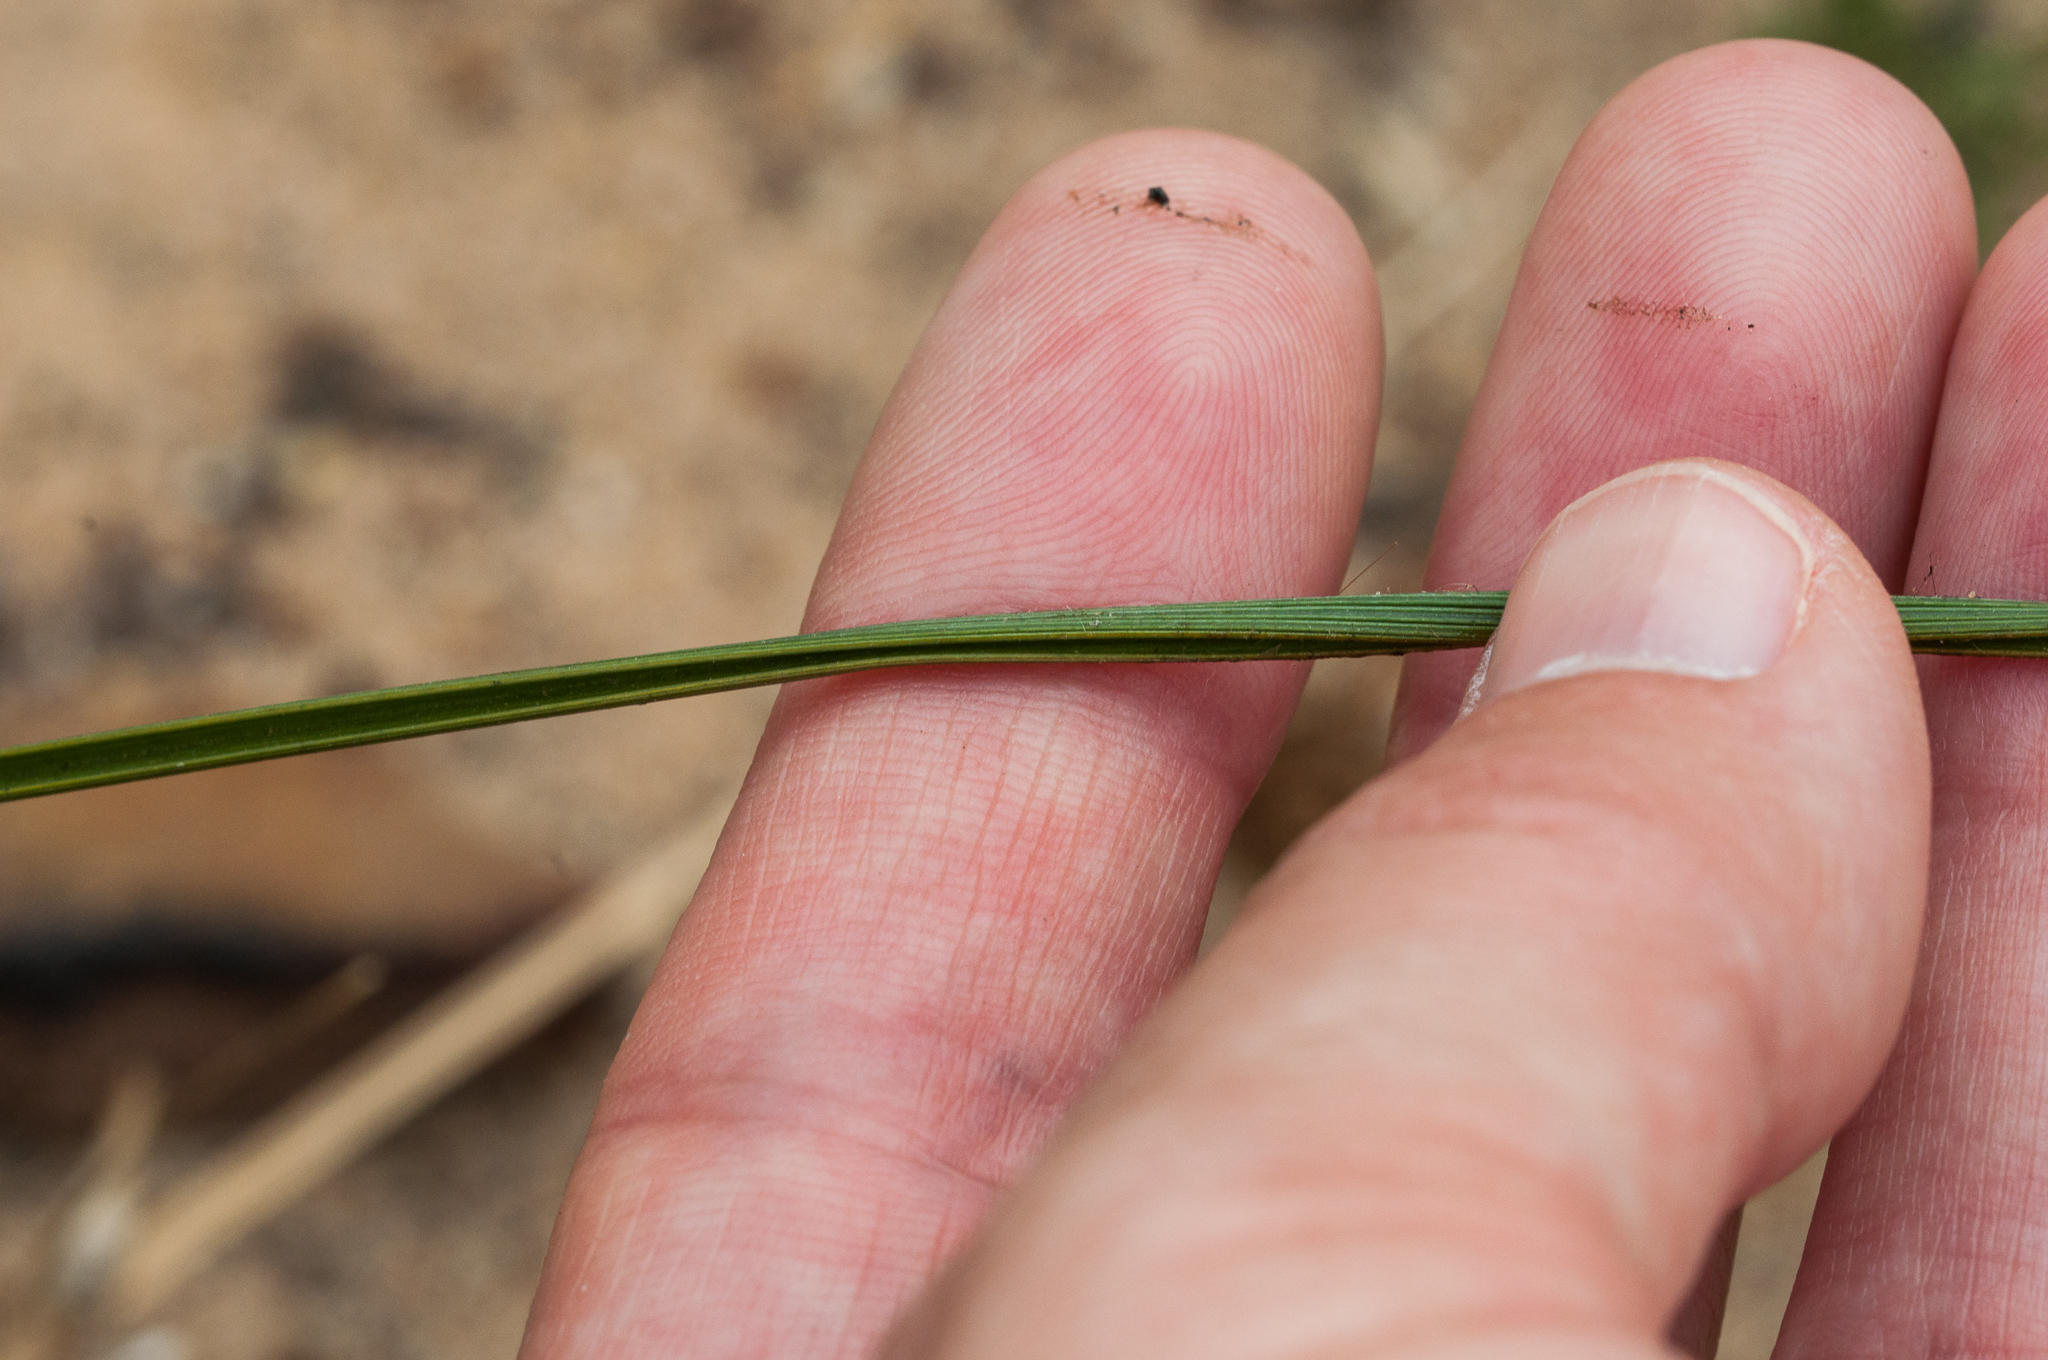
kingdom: Plantae
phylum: Tracheophyta
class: Liliopsida
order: Asparagales
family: Iridaceae
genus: Moraea
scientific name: Moraea inconspicua
